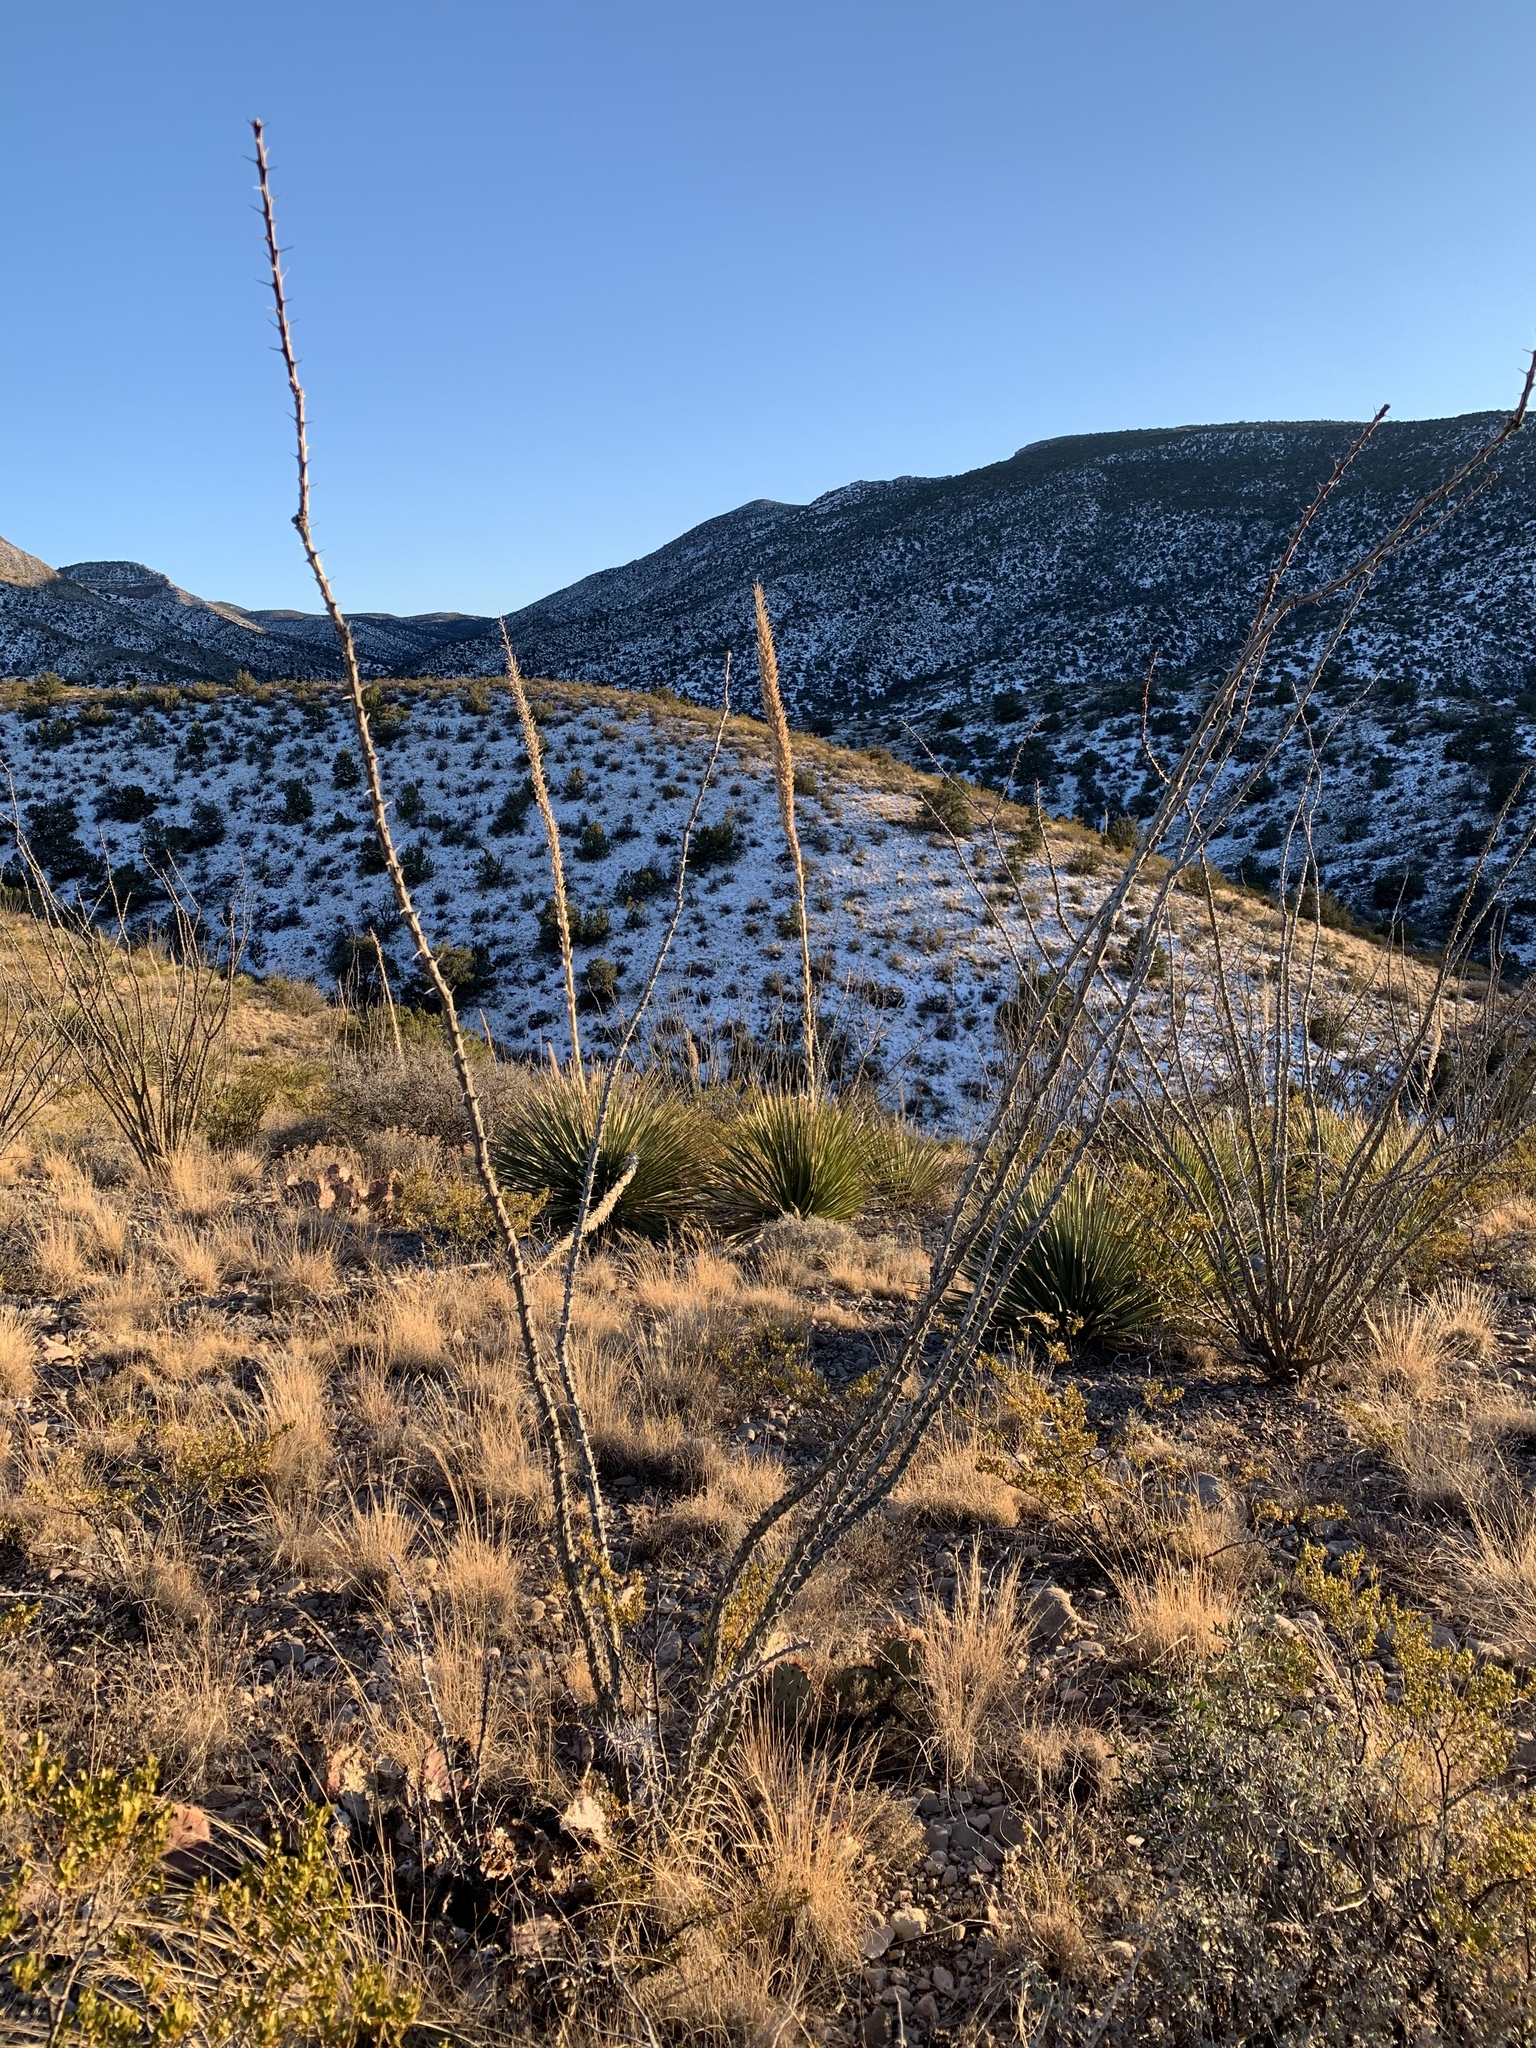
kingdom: Plantae
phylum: Tracheophyta
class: Magnoliopsida
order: Ericales
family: Fouquieriaceae
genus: Fouquieria
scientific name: Fouquieria splendens
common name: Vine-cactus
